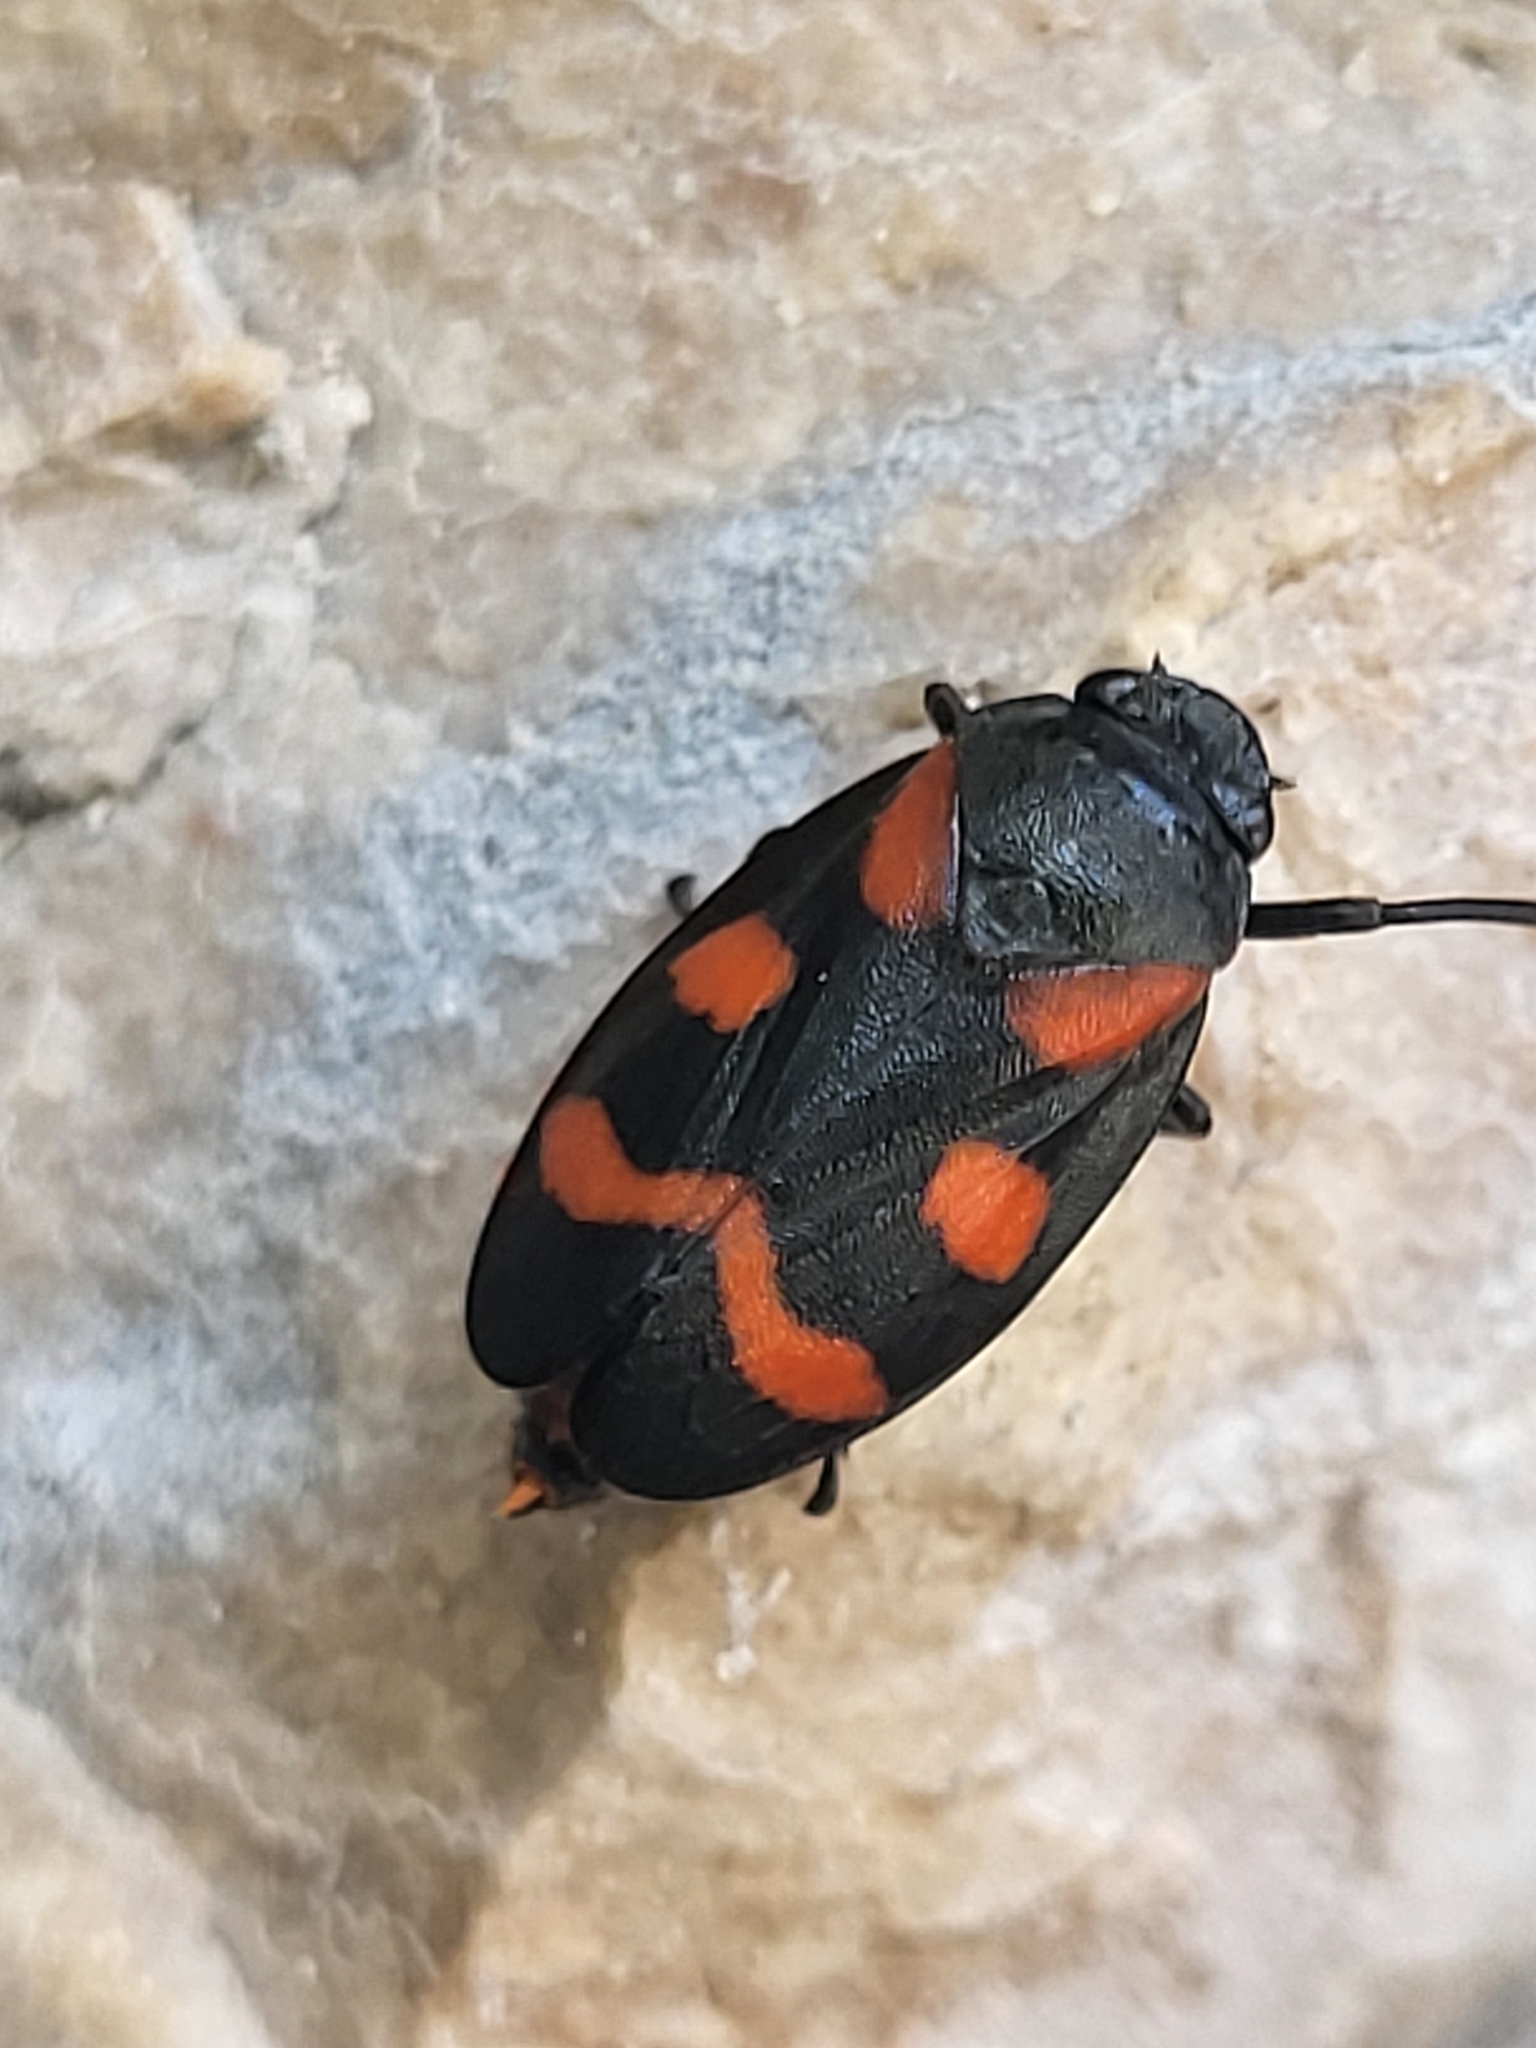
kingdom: Animalia
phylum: Arthropoda
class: Insecta
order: Hemiptera
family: Cercopidae
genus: Cercopis
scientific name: Cercopis
